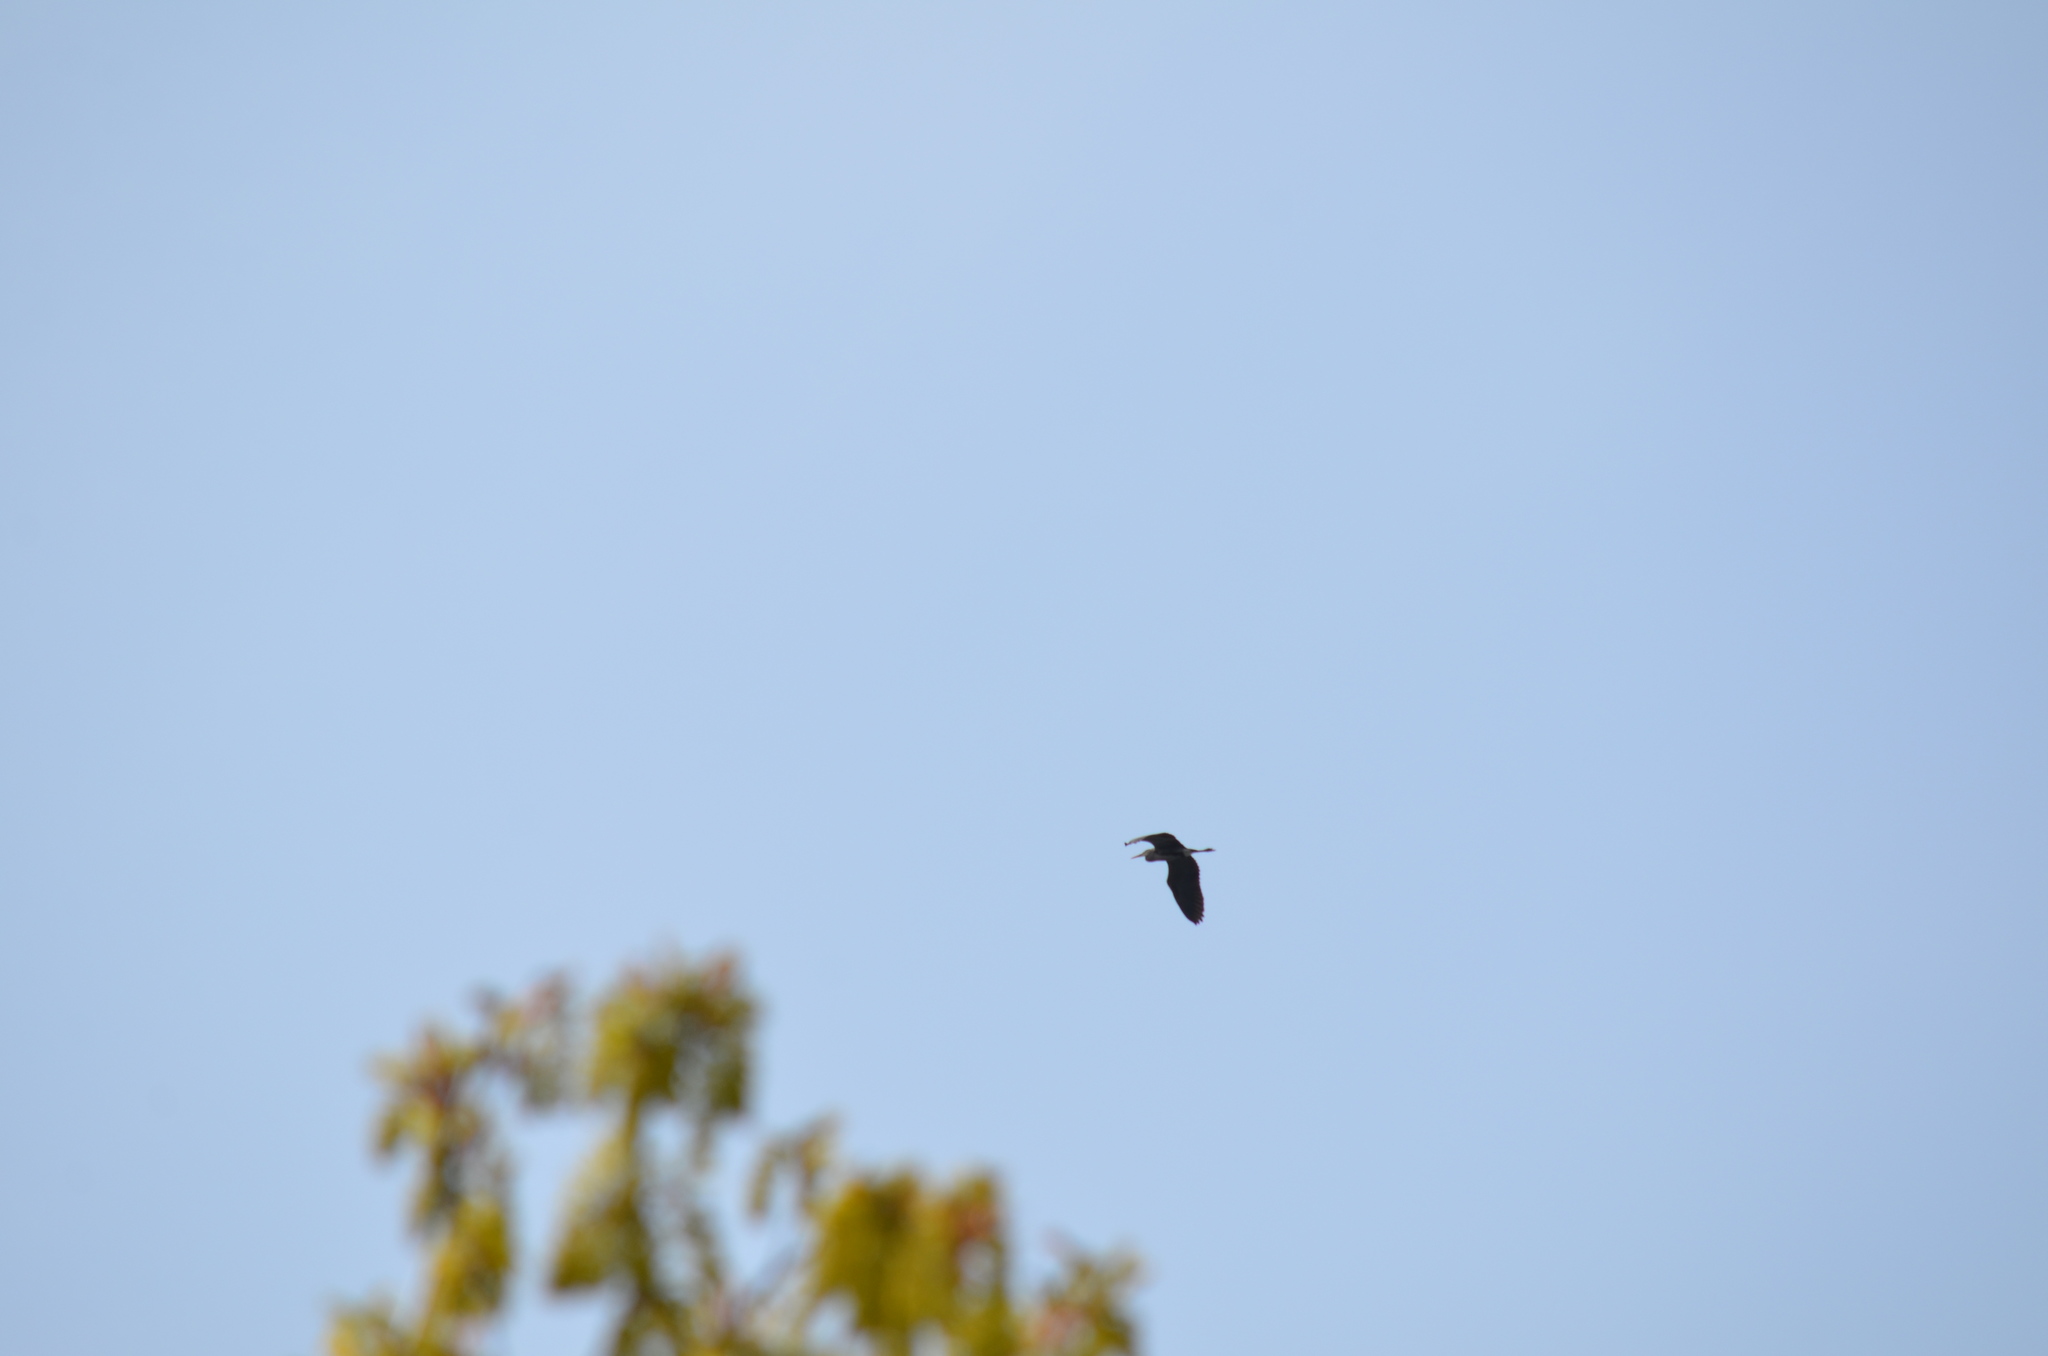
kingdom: Animalia
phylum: Chordata
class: Aves
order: Pelecaniformes
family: Ardeidae
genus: Ardea
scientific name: Ardea herodias
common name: Great blue heron
